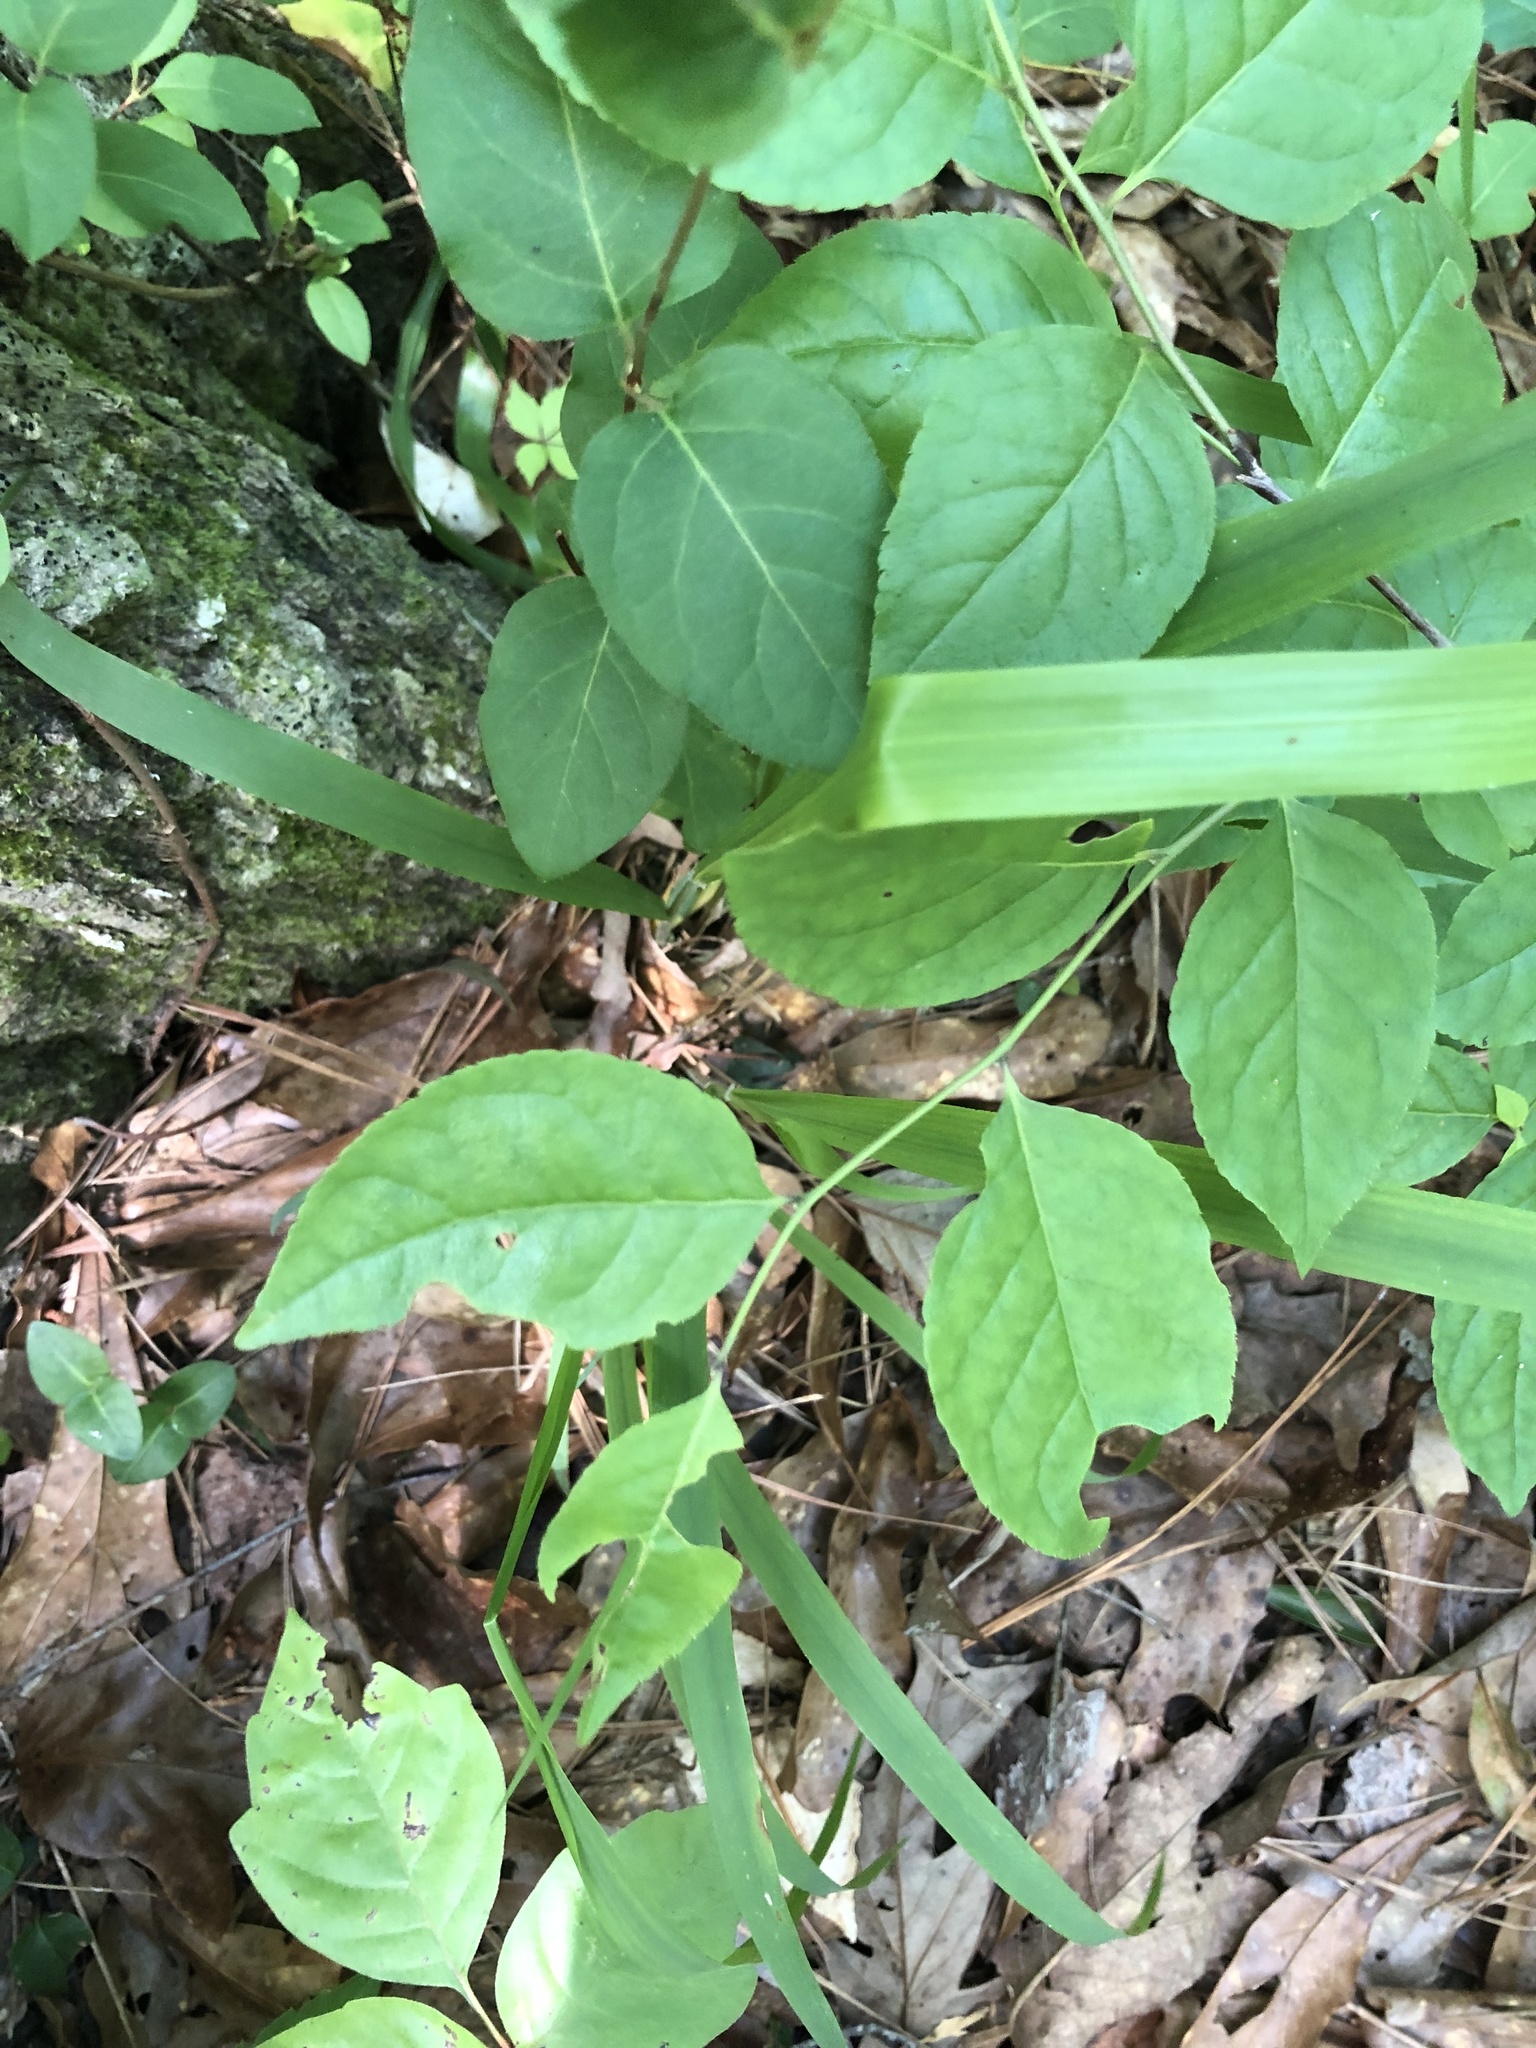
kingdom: Plantae
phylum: Tracheophyta
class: Magnoliopsida
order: Aquifoliales
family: Aquifoliaceae
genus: Ilex
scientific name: Ilex ambigua
